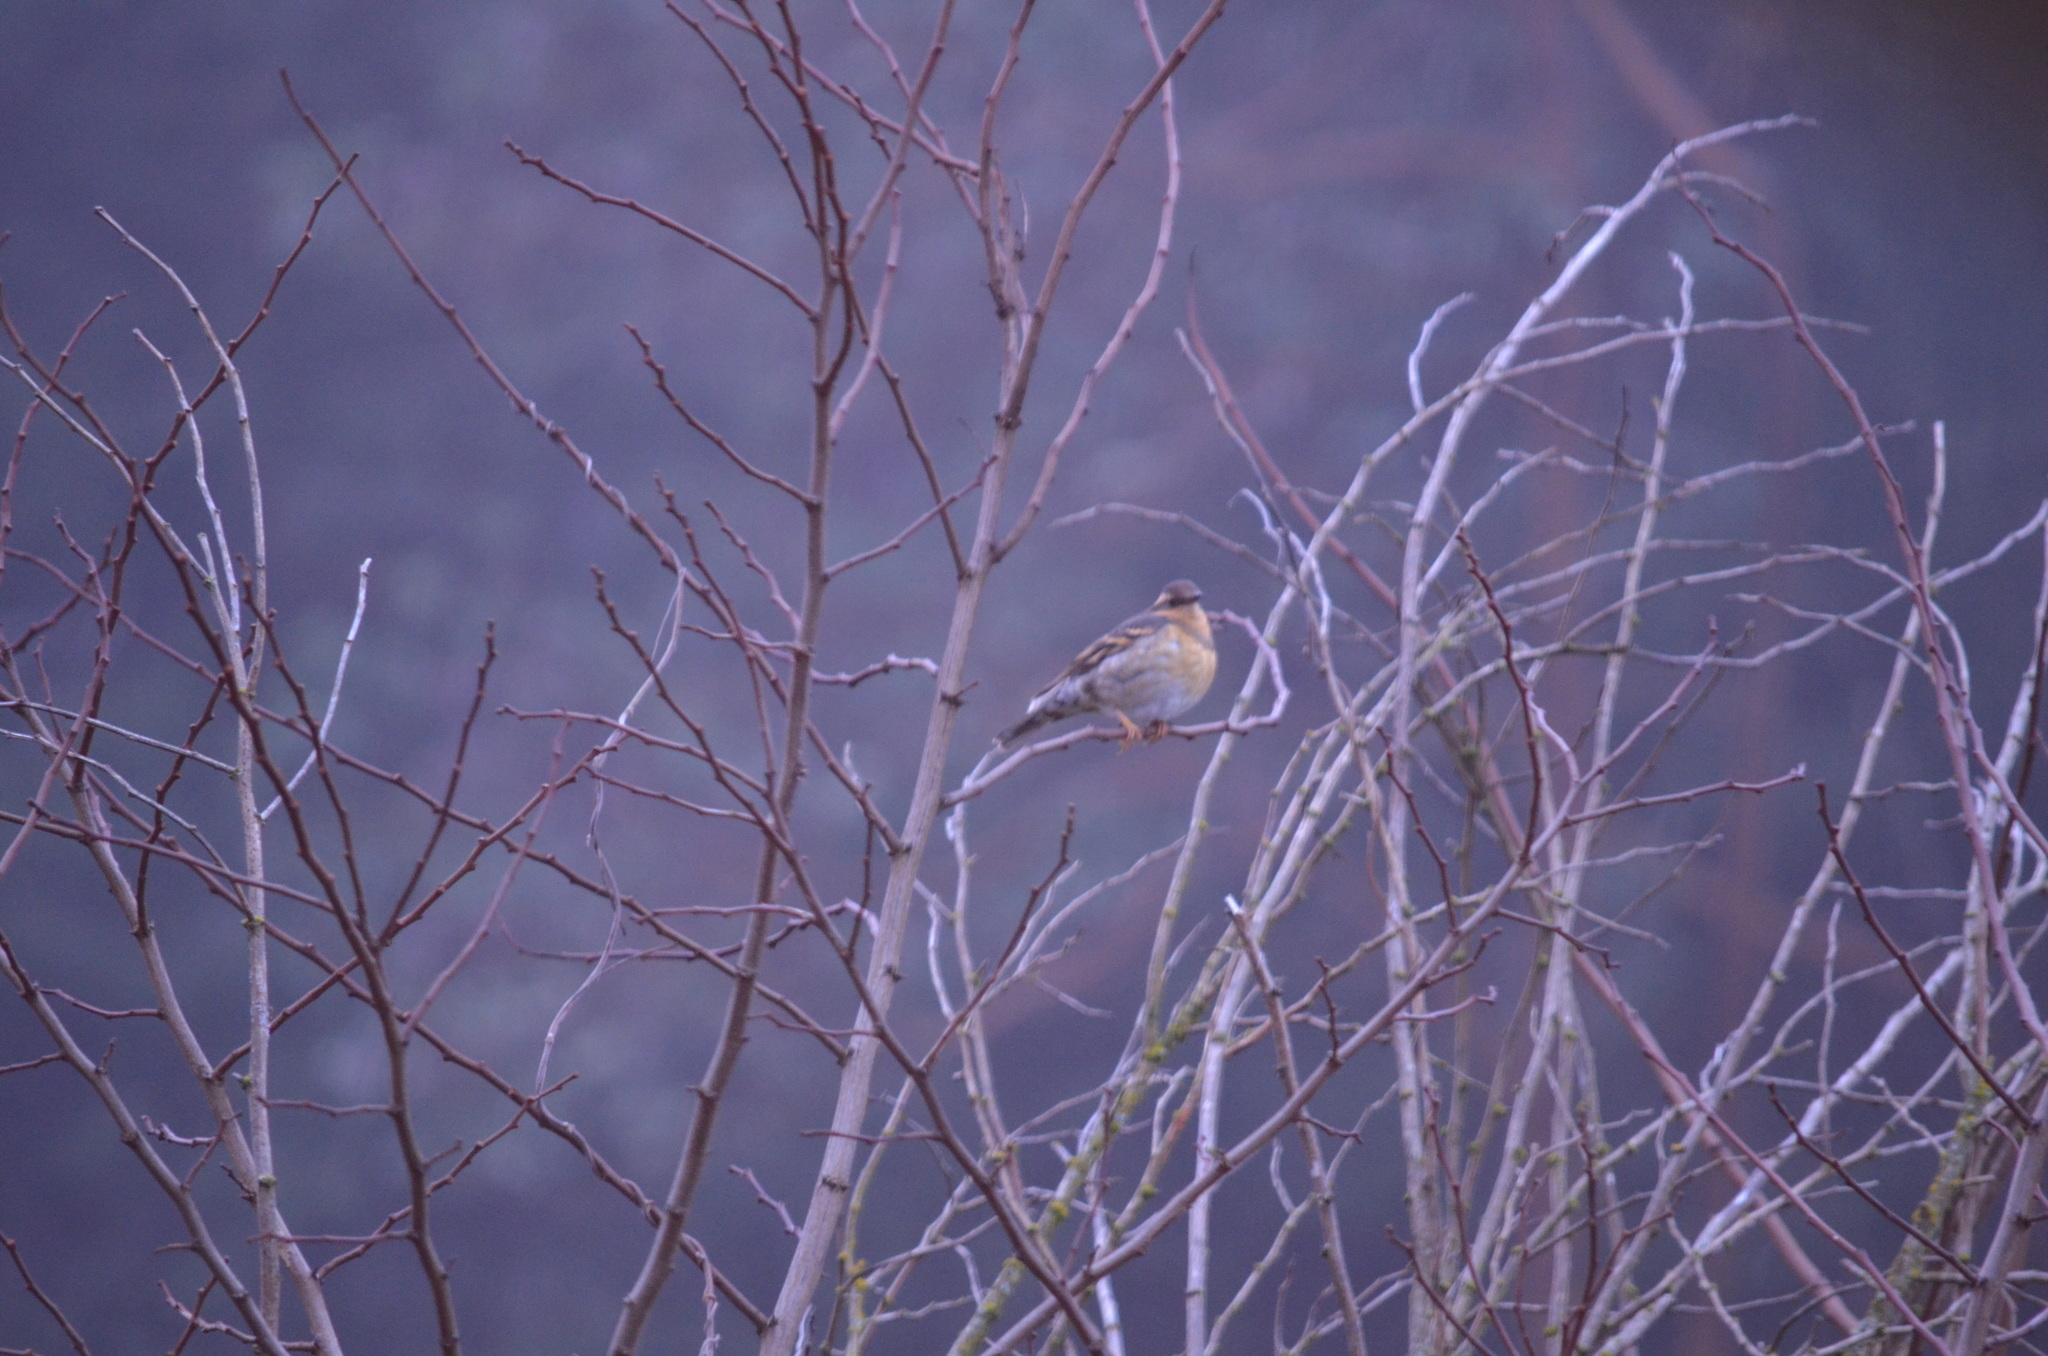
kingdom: Animalia
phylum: Chordata
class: Aves
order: Passeriformes
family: Turdidae
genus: Ixoreus
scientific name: Ixoreus naevius
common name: Varied thrush
